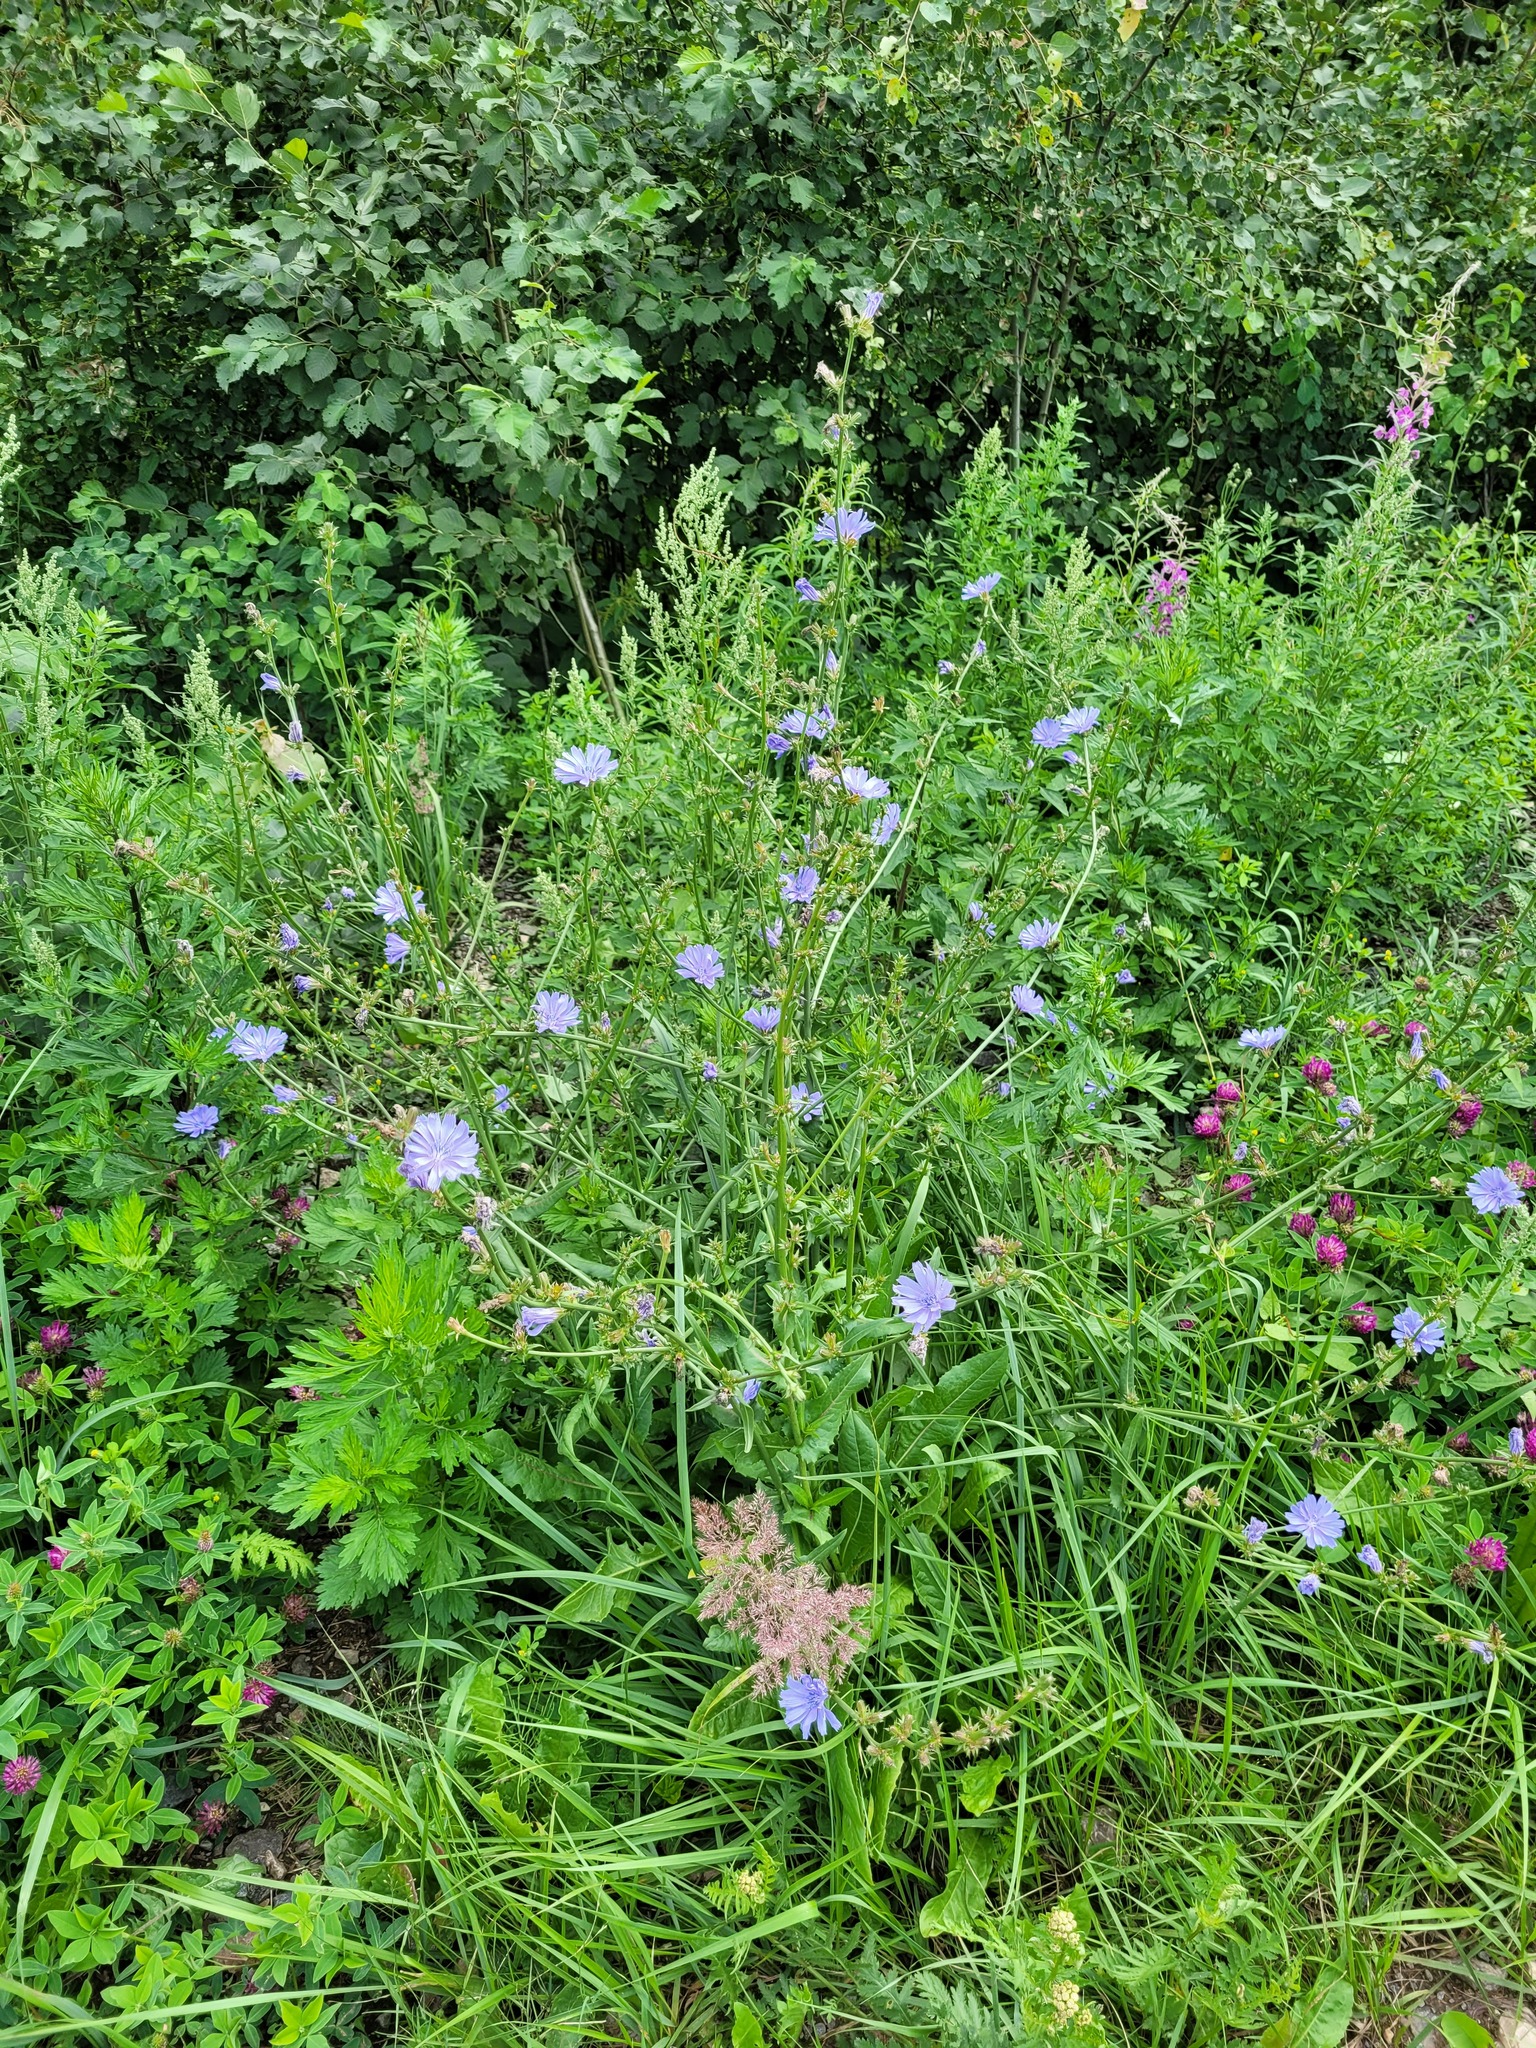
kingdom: Plantae
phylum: Tracheophyta
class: Magnoliopsida
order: Asterales
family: Asteraceae
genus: Cichorium
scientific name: Cichorium intybus
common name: Chicory
